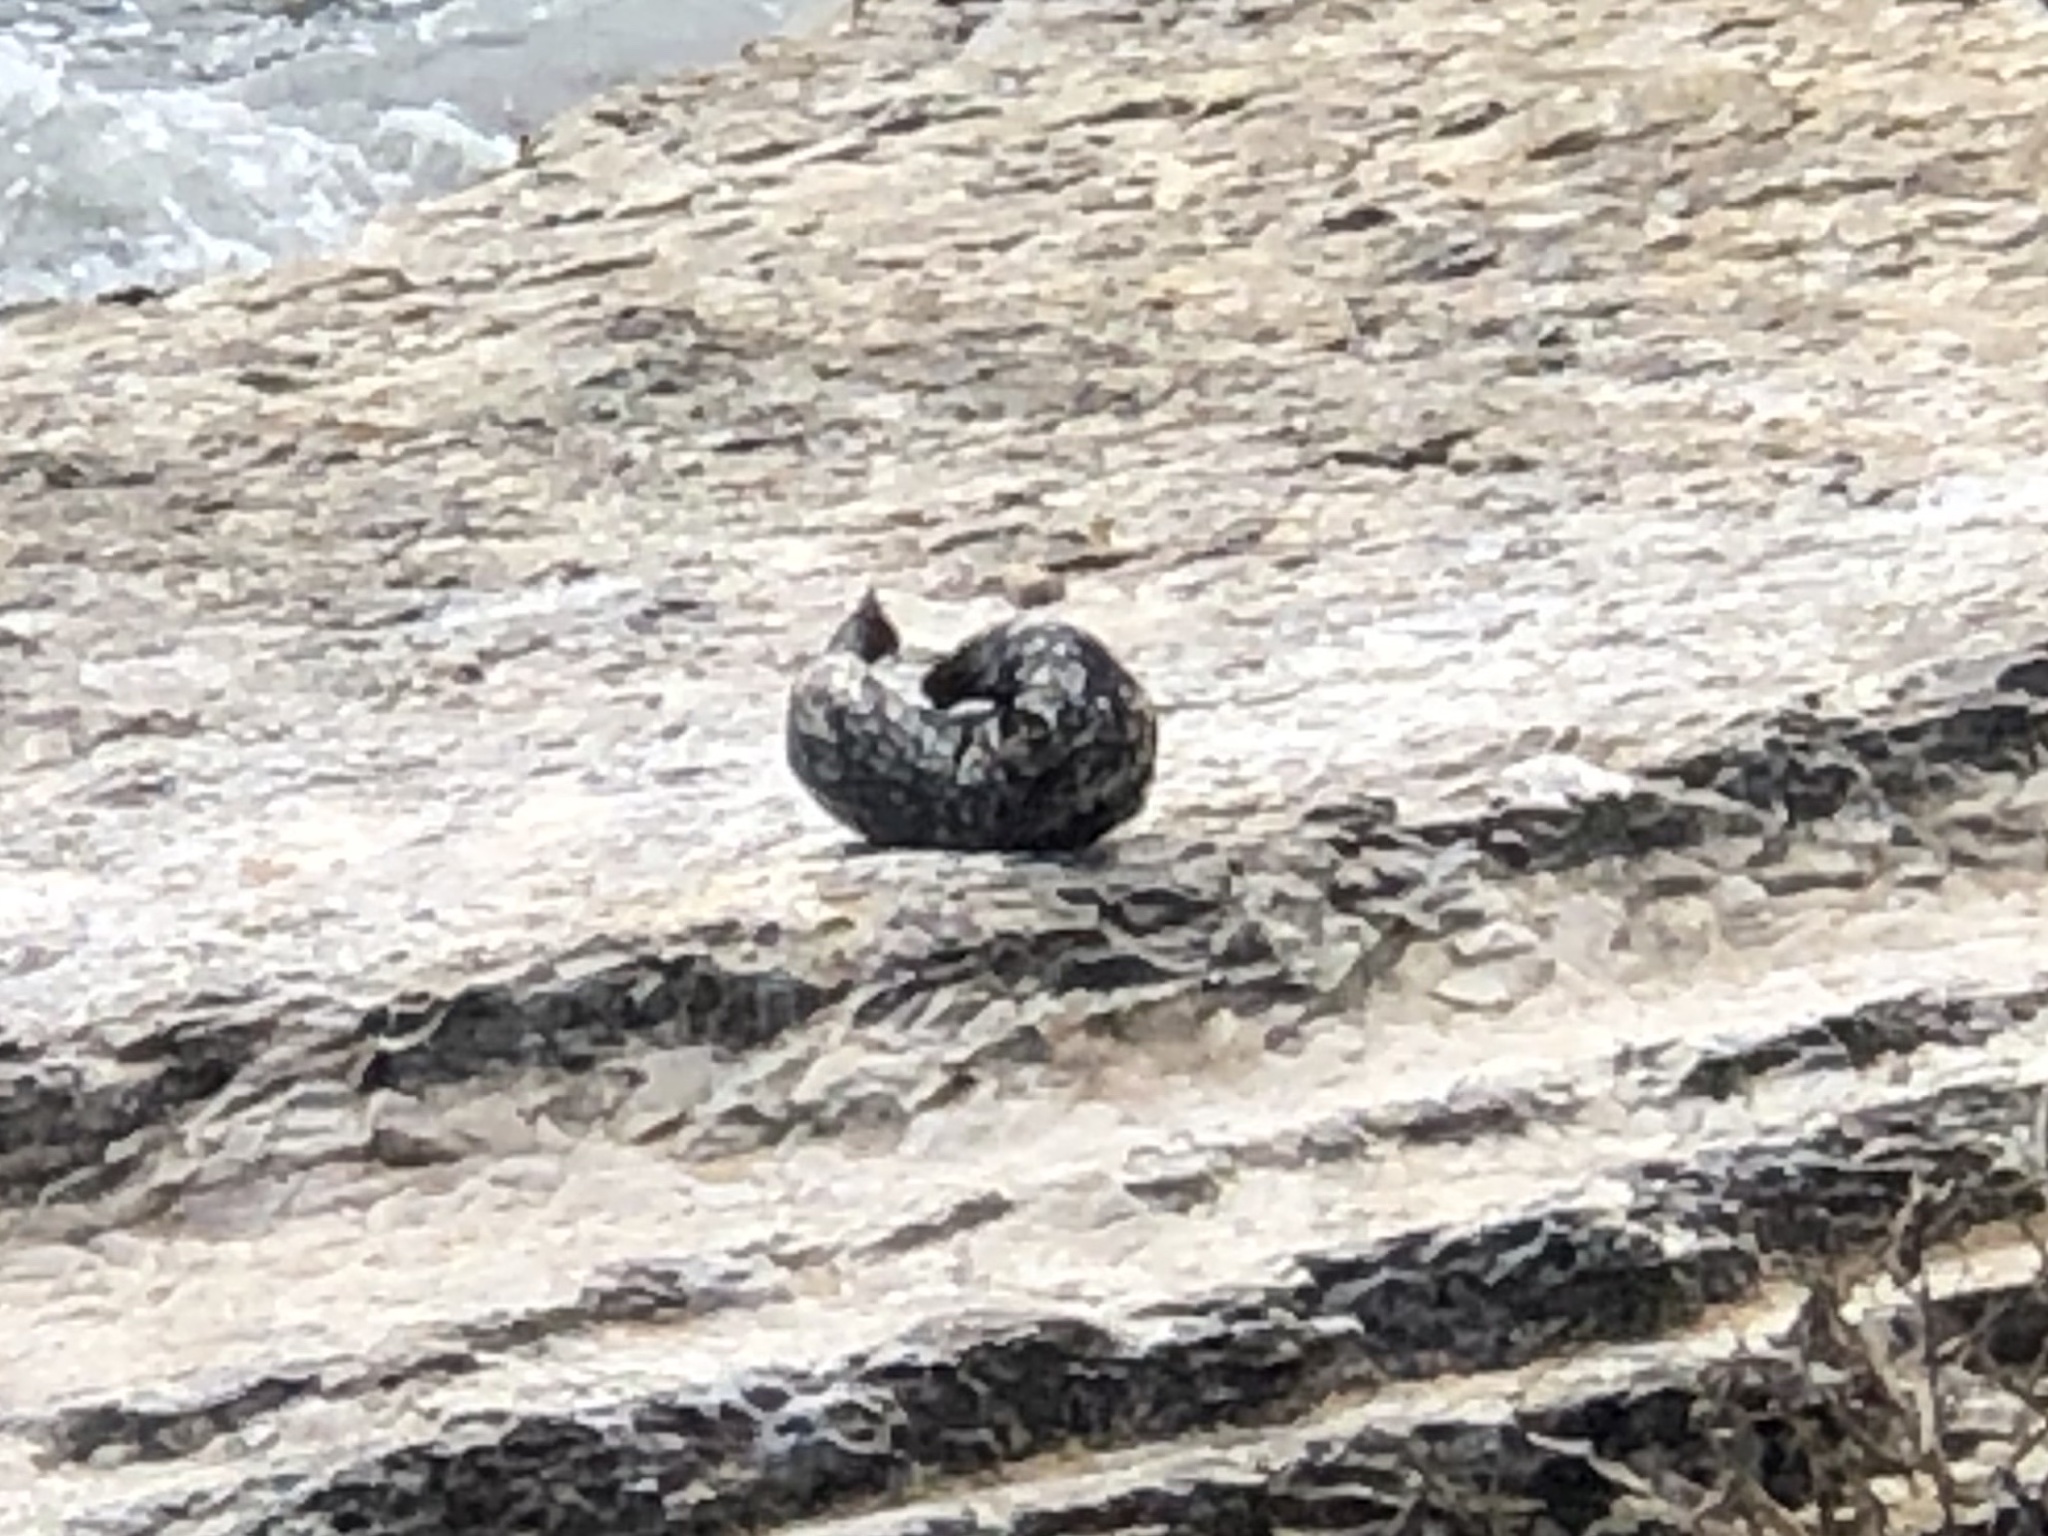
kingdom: Animalia
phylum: Chordata
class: Mammalia
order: Carnivora
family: Phocidae
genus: Phoca
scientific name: Phoca vitulina
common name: Harbor seal
